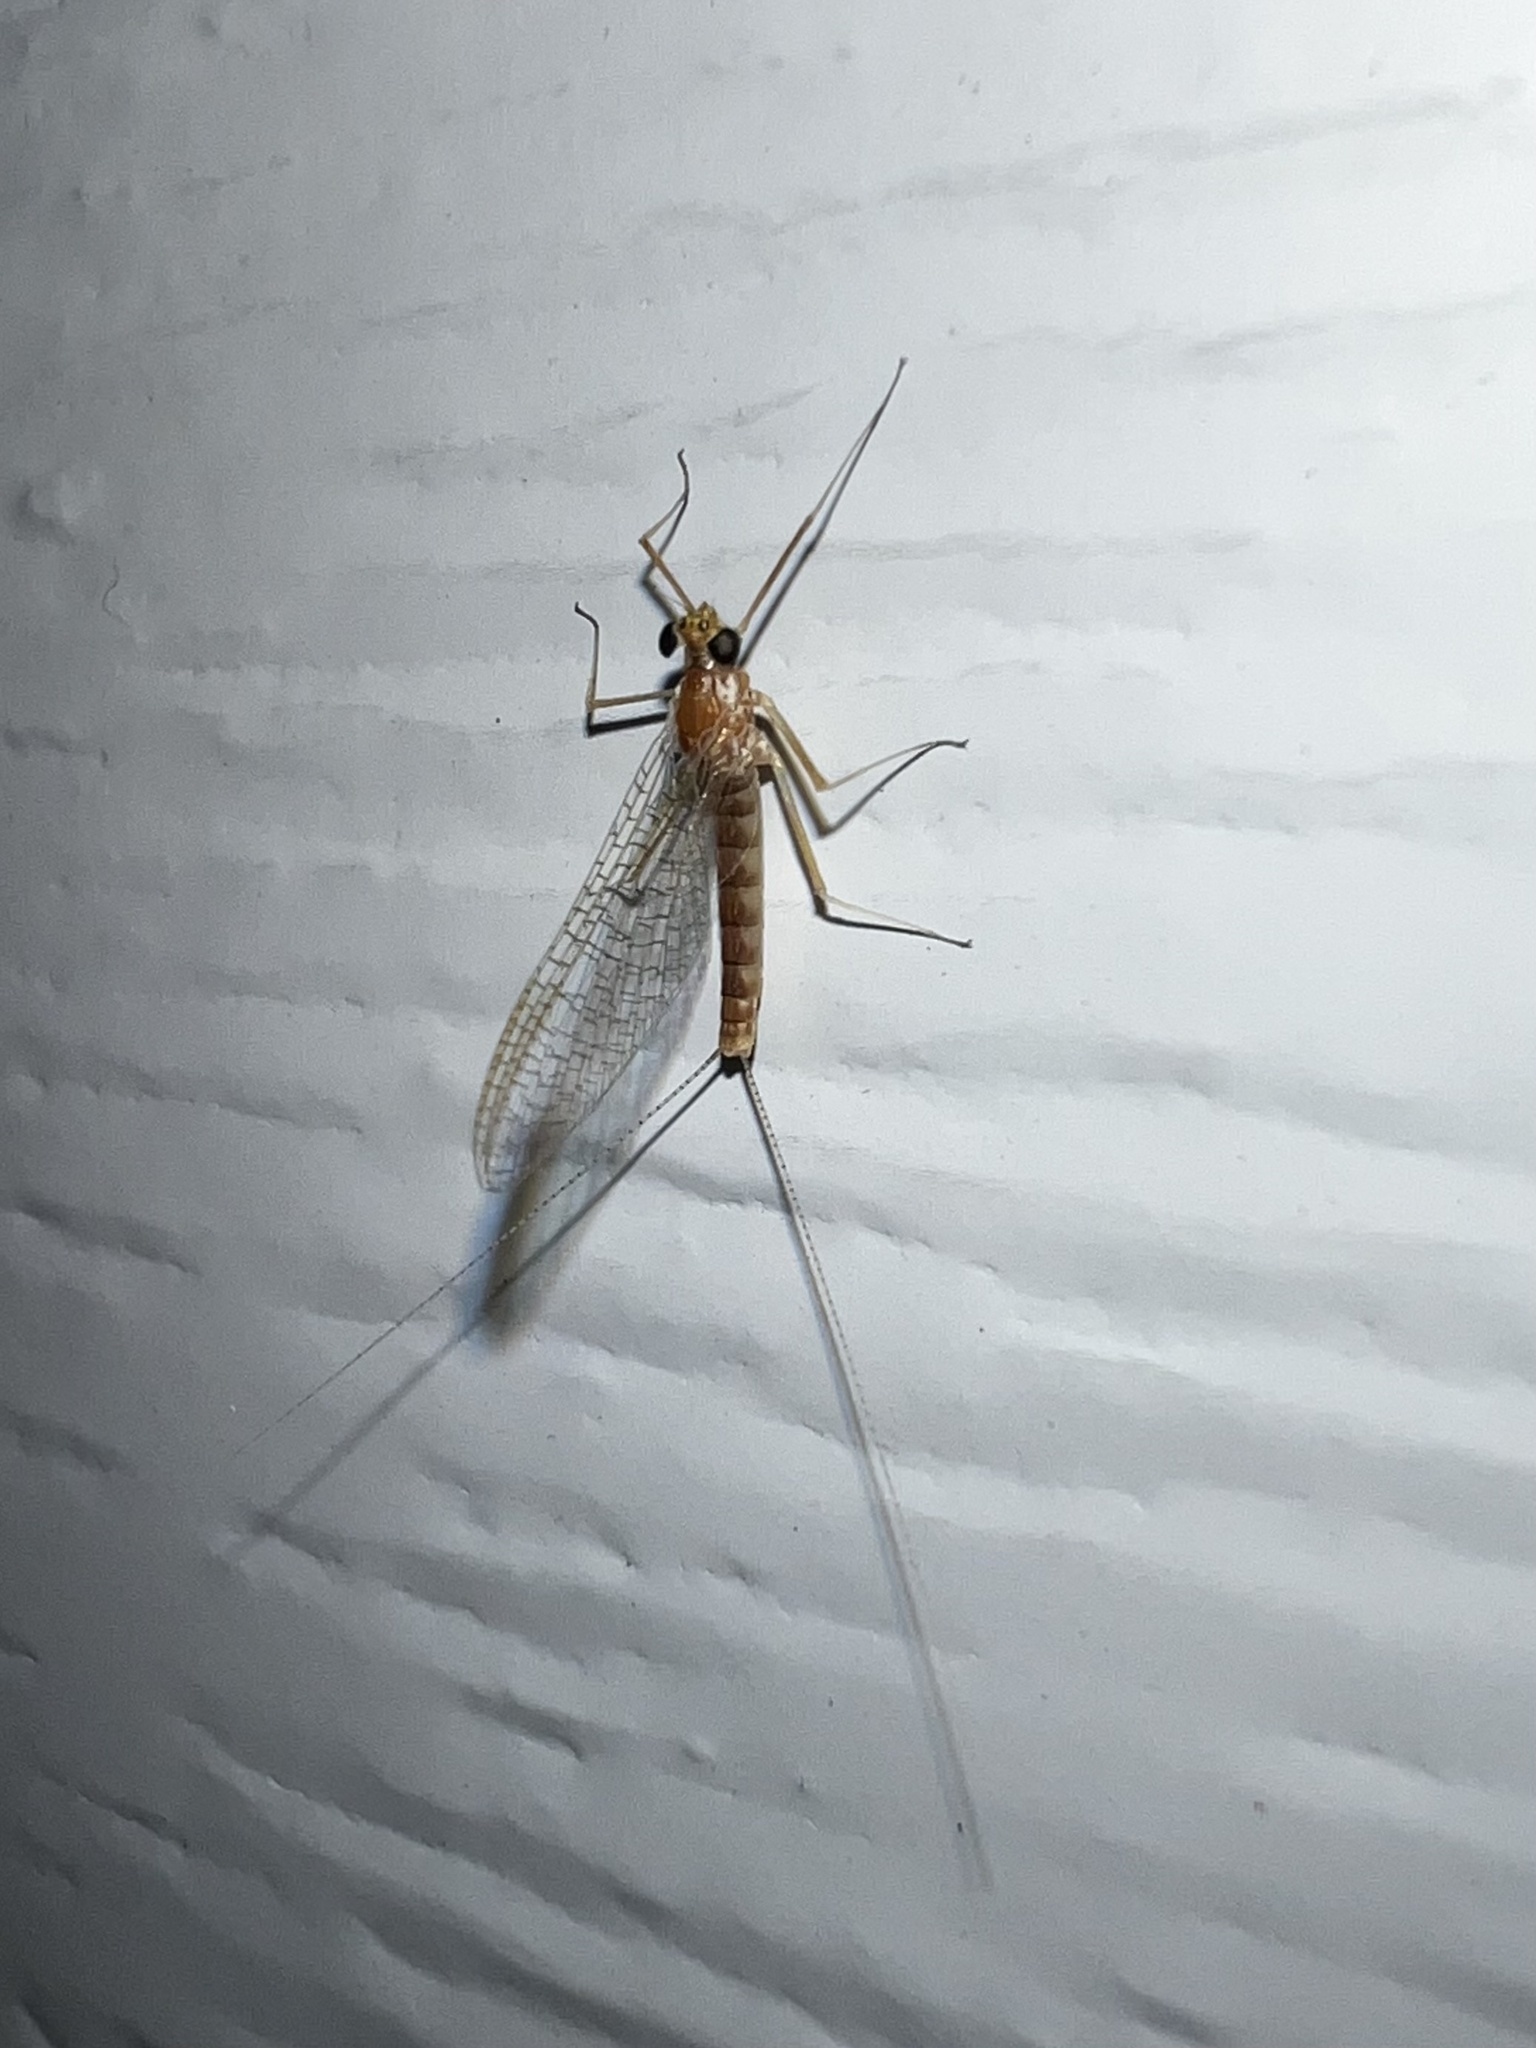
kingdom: Animalia
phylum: Arthropoda
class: Insecta
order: Ephemeroptera
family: Heptageniidae
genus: Heptagenia
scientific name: Heptagenia adaequata
